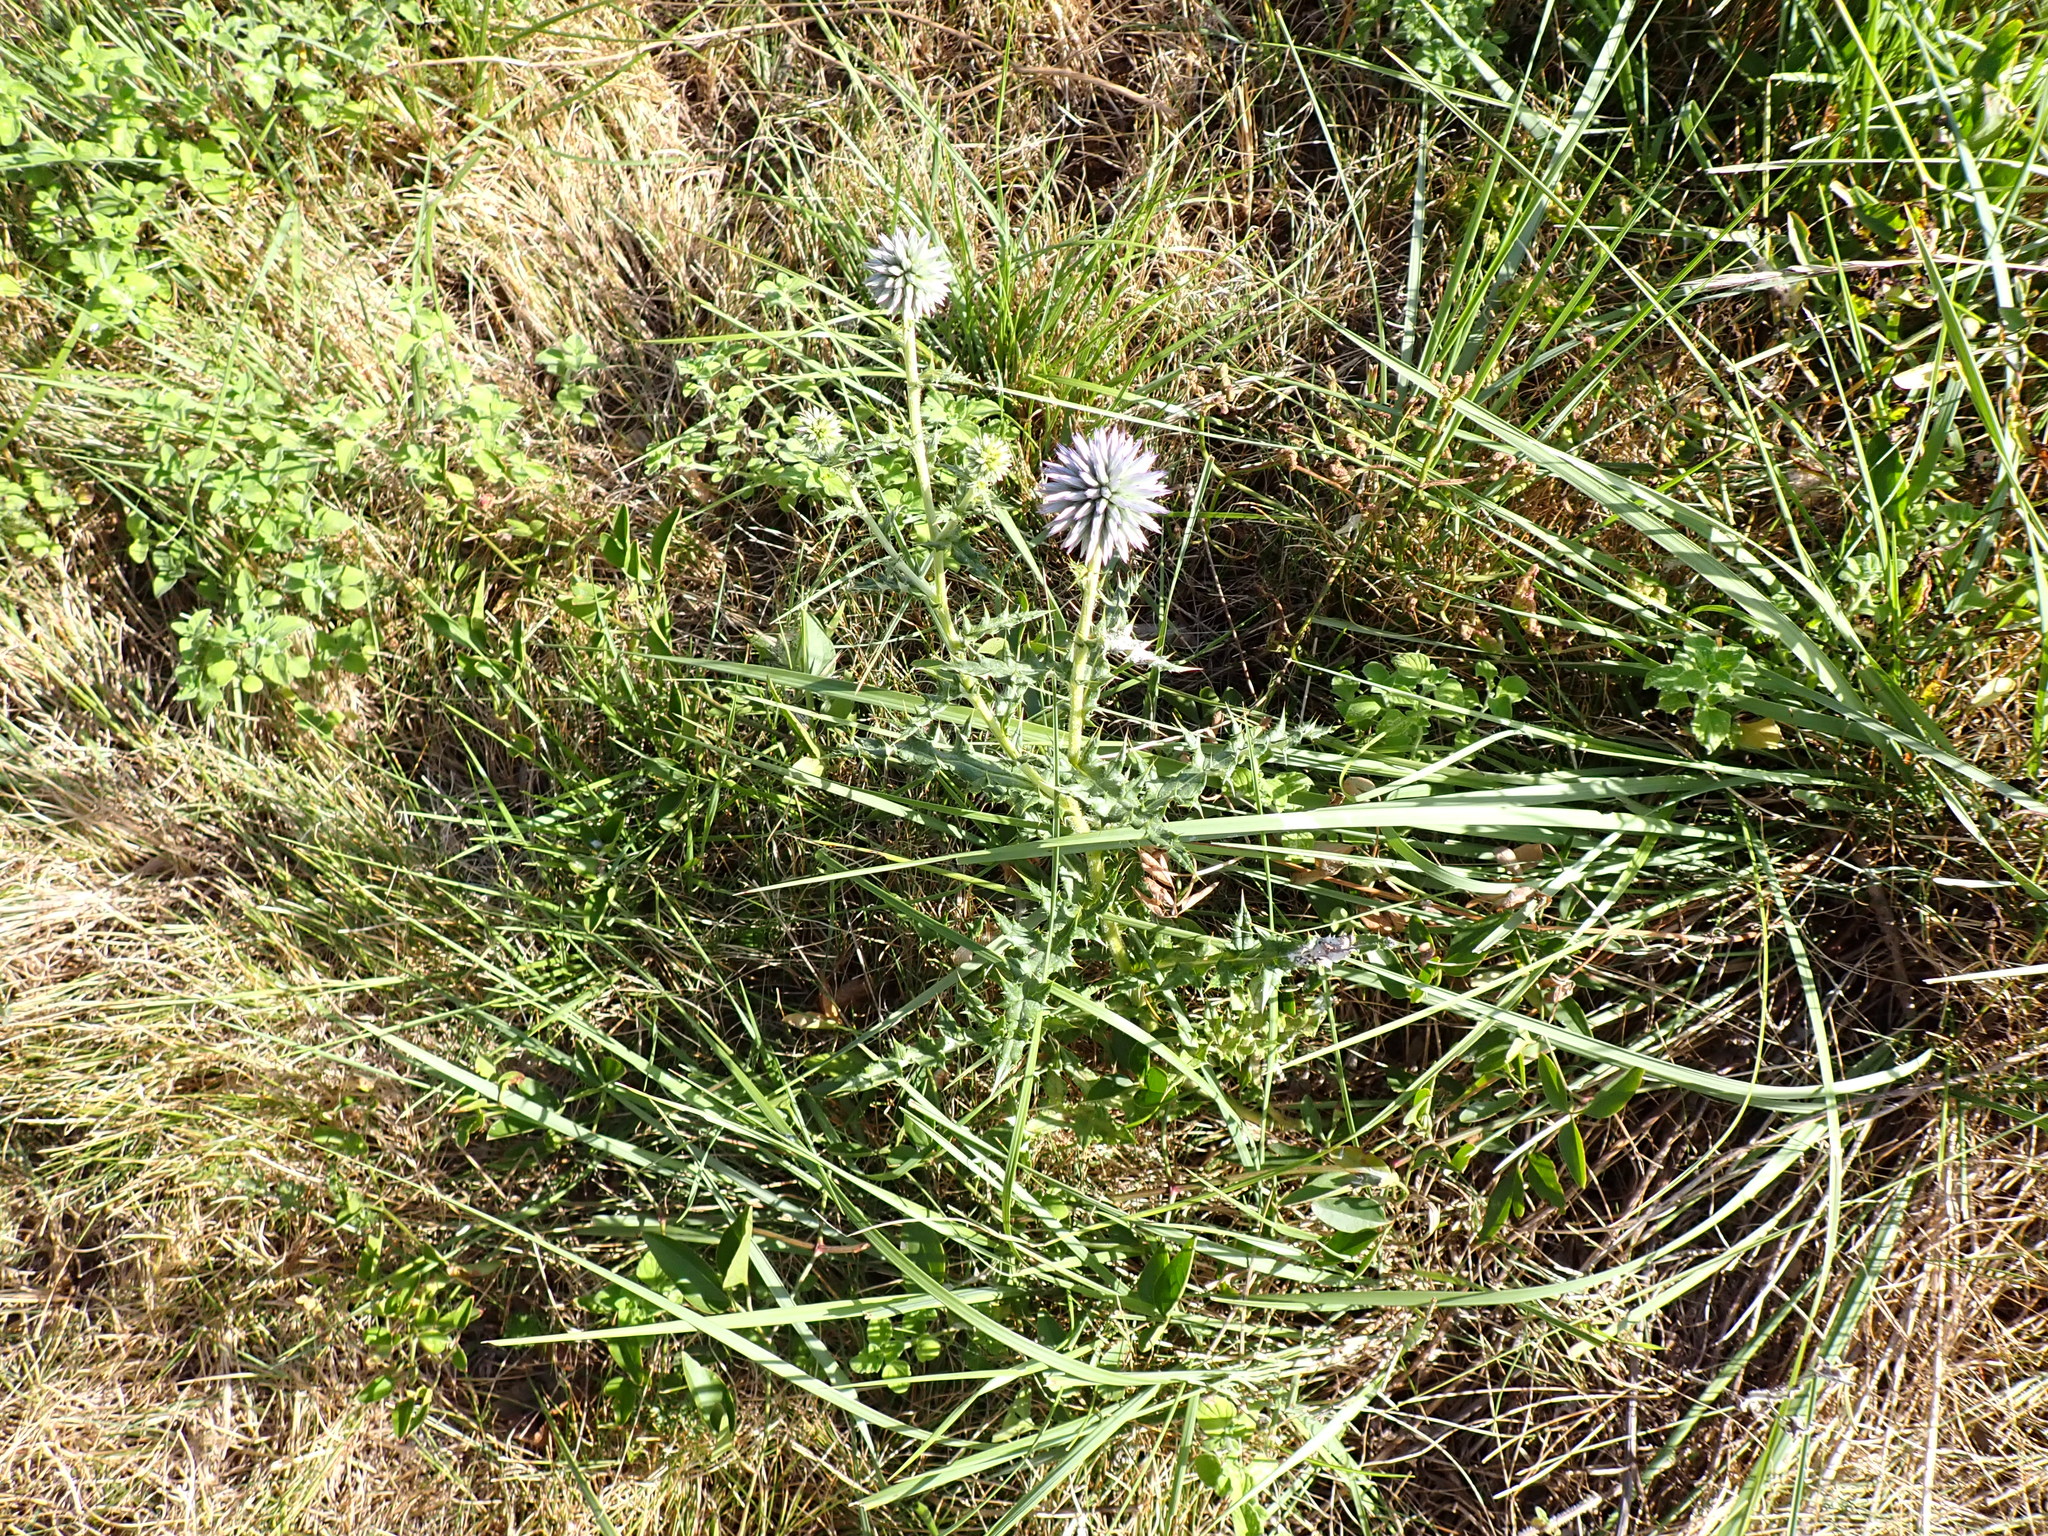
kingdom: Plantae
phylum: Tracheophyta
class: Magnoliopsida
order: Asterales
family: Asteraceae
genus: Echinops
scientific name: Echinops ritro
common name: Globe thistle
